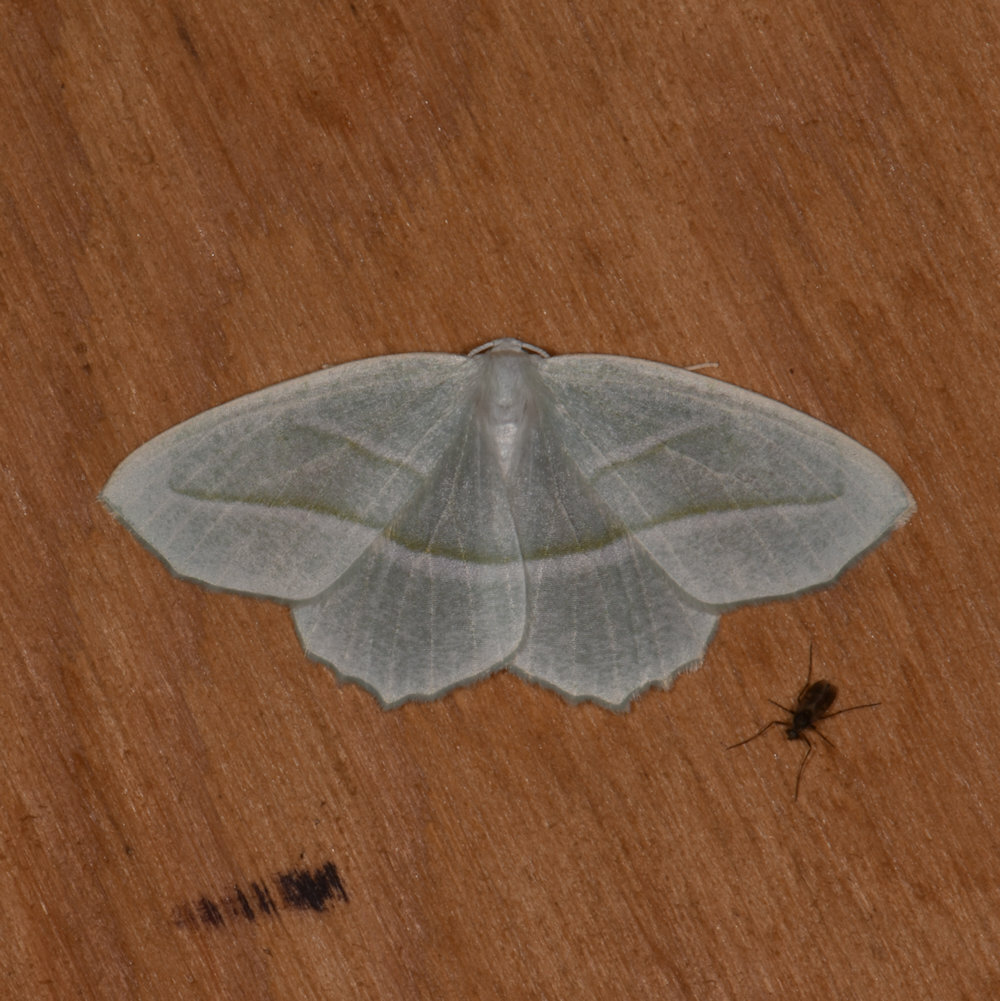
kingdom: Animalia
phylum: Arthropoda
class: Insecta
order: Lepidoptera
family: Geometridae
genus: Campaea
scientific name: Campaea perlata
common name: Fringed looper
